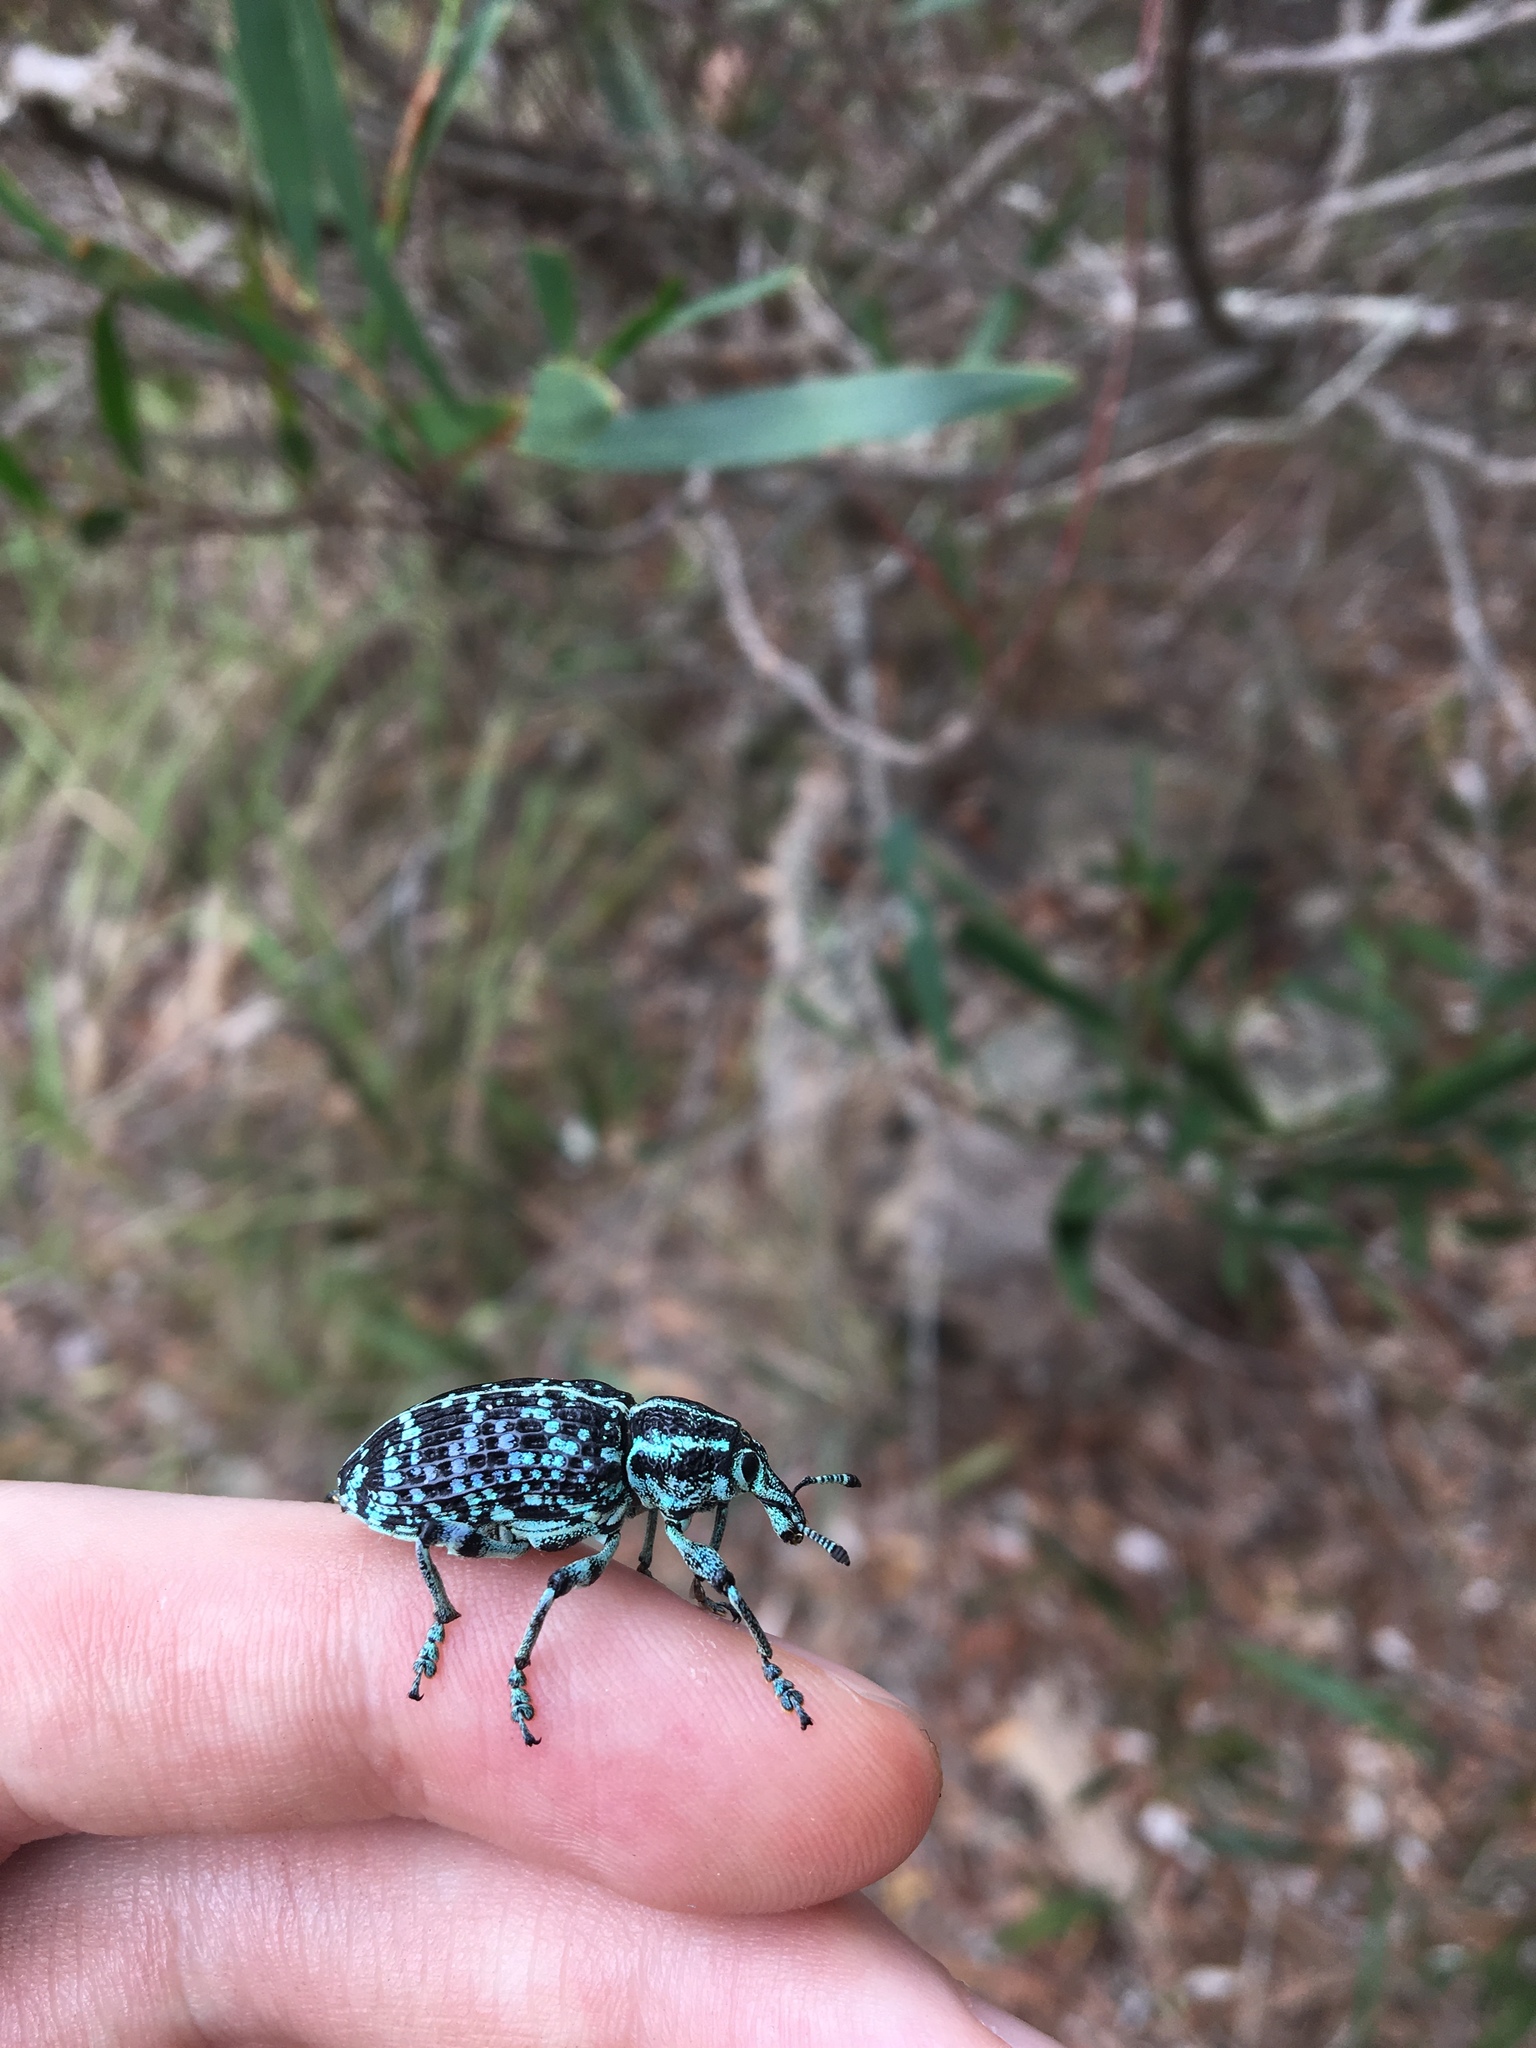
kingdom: Animalia
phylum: Arthropoda
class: Insecta
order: Coleoptera
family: Curculionidae
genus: Chrysolopus
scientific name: Chrysolopus spectabilis
